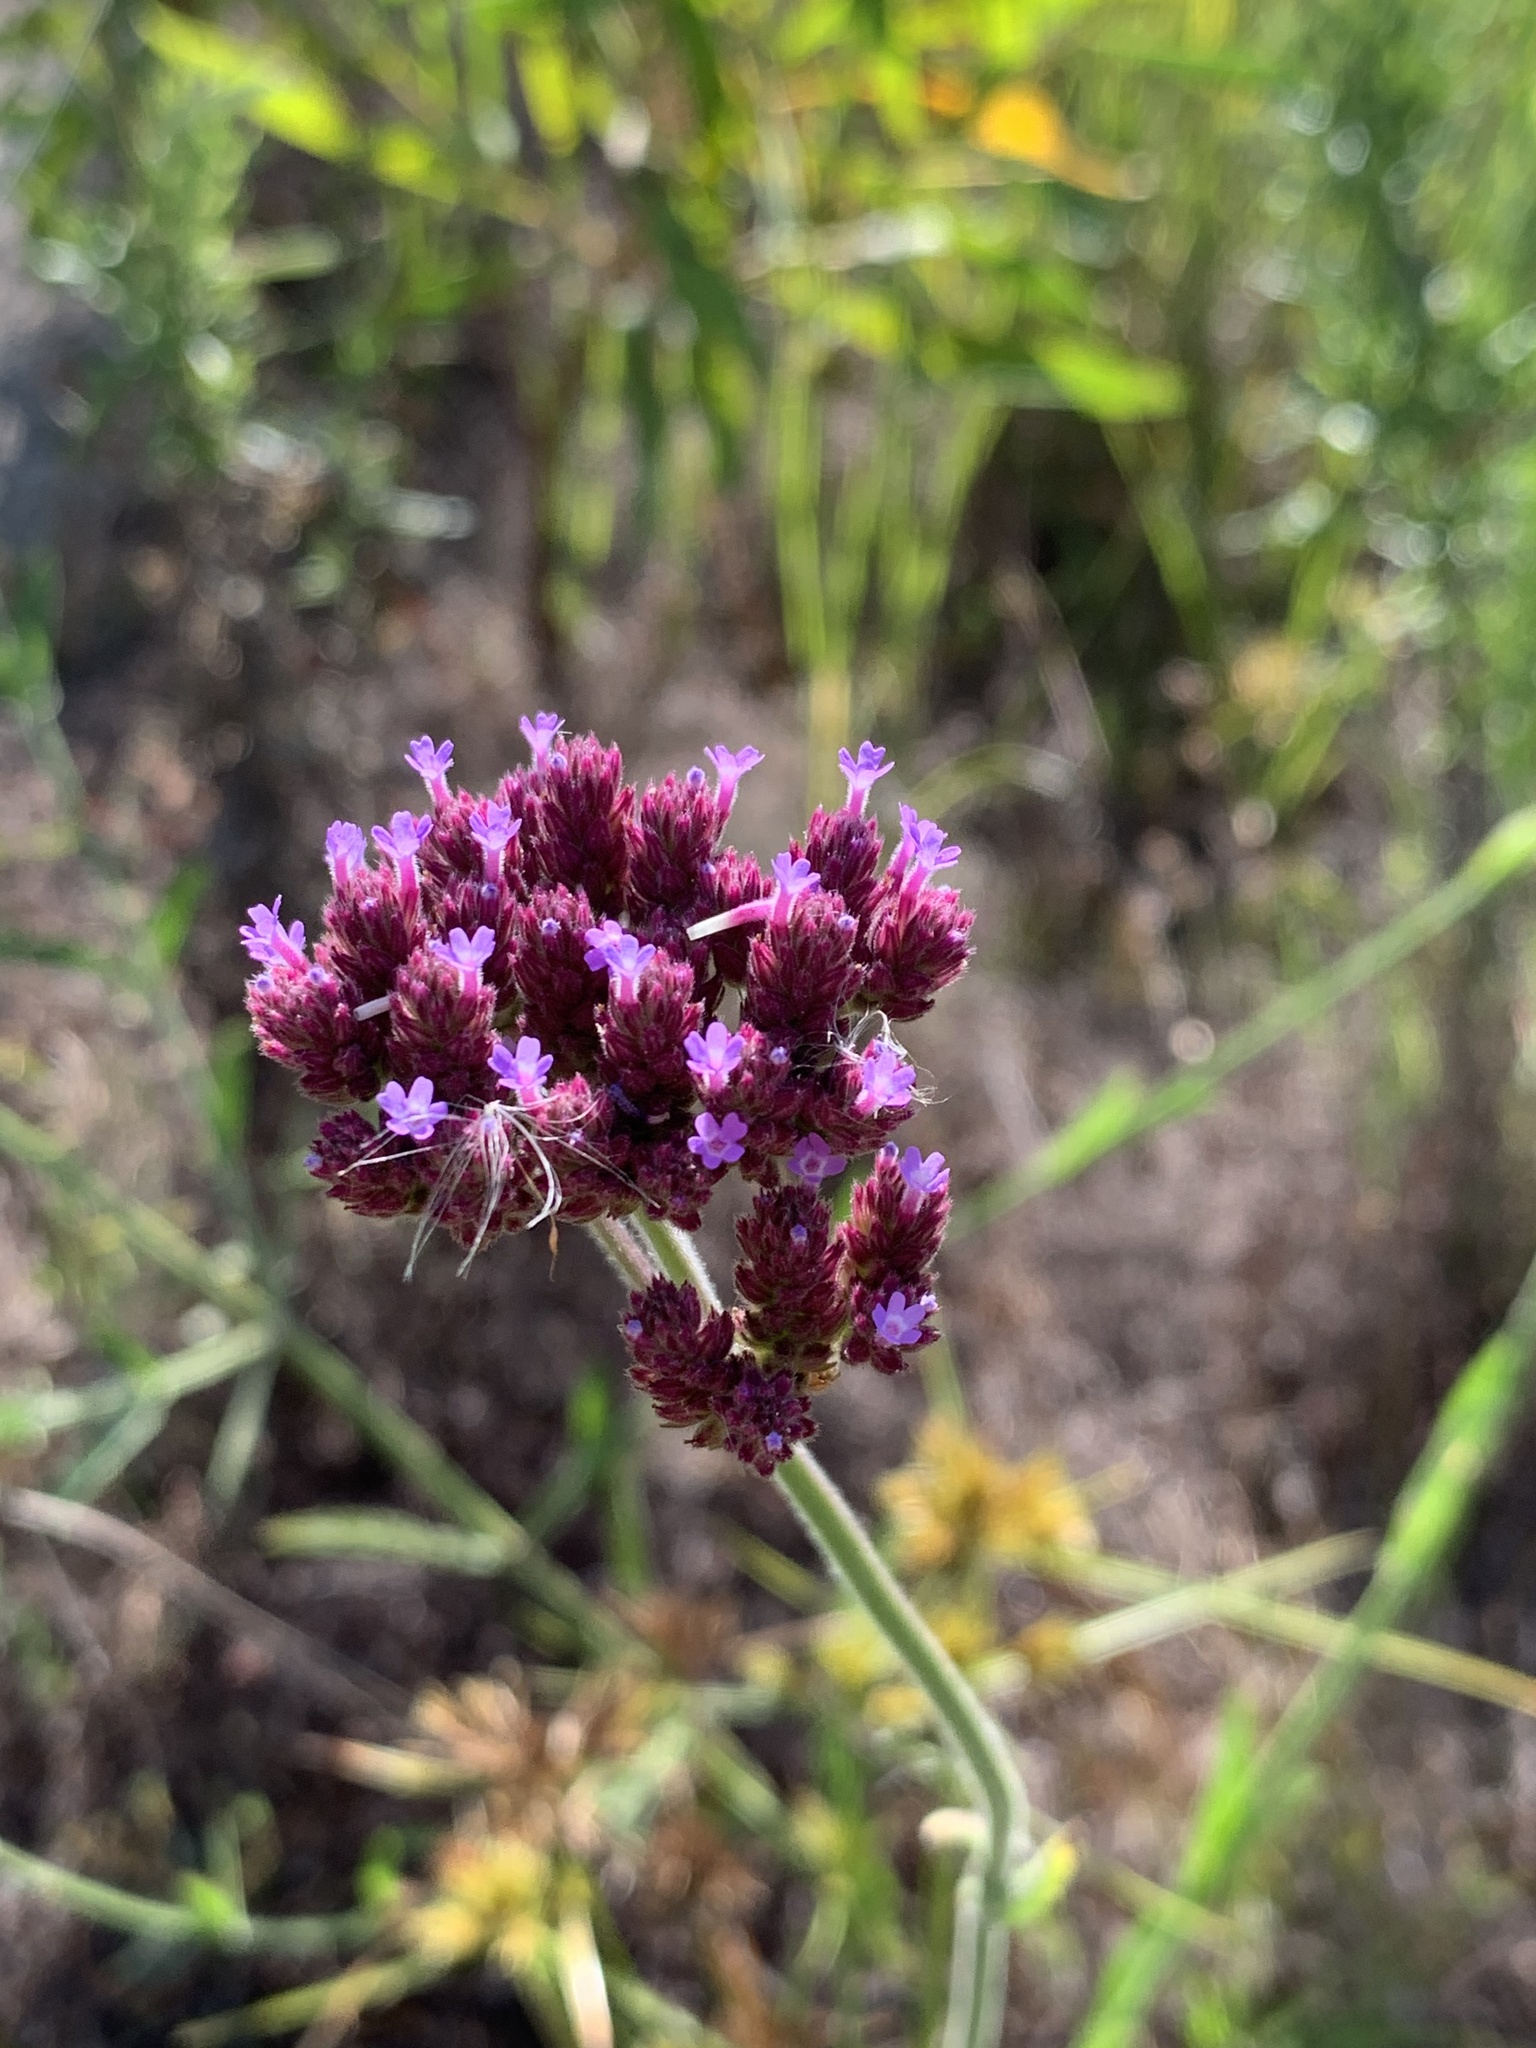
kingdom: Plantae
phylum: Tracheophyta
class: Magnoliopsida
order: Lamiales
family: Verbenaceae
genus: Verbena
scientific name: Verbena bonariensis
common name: Purpletop vervain
